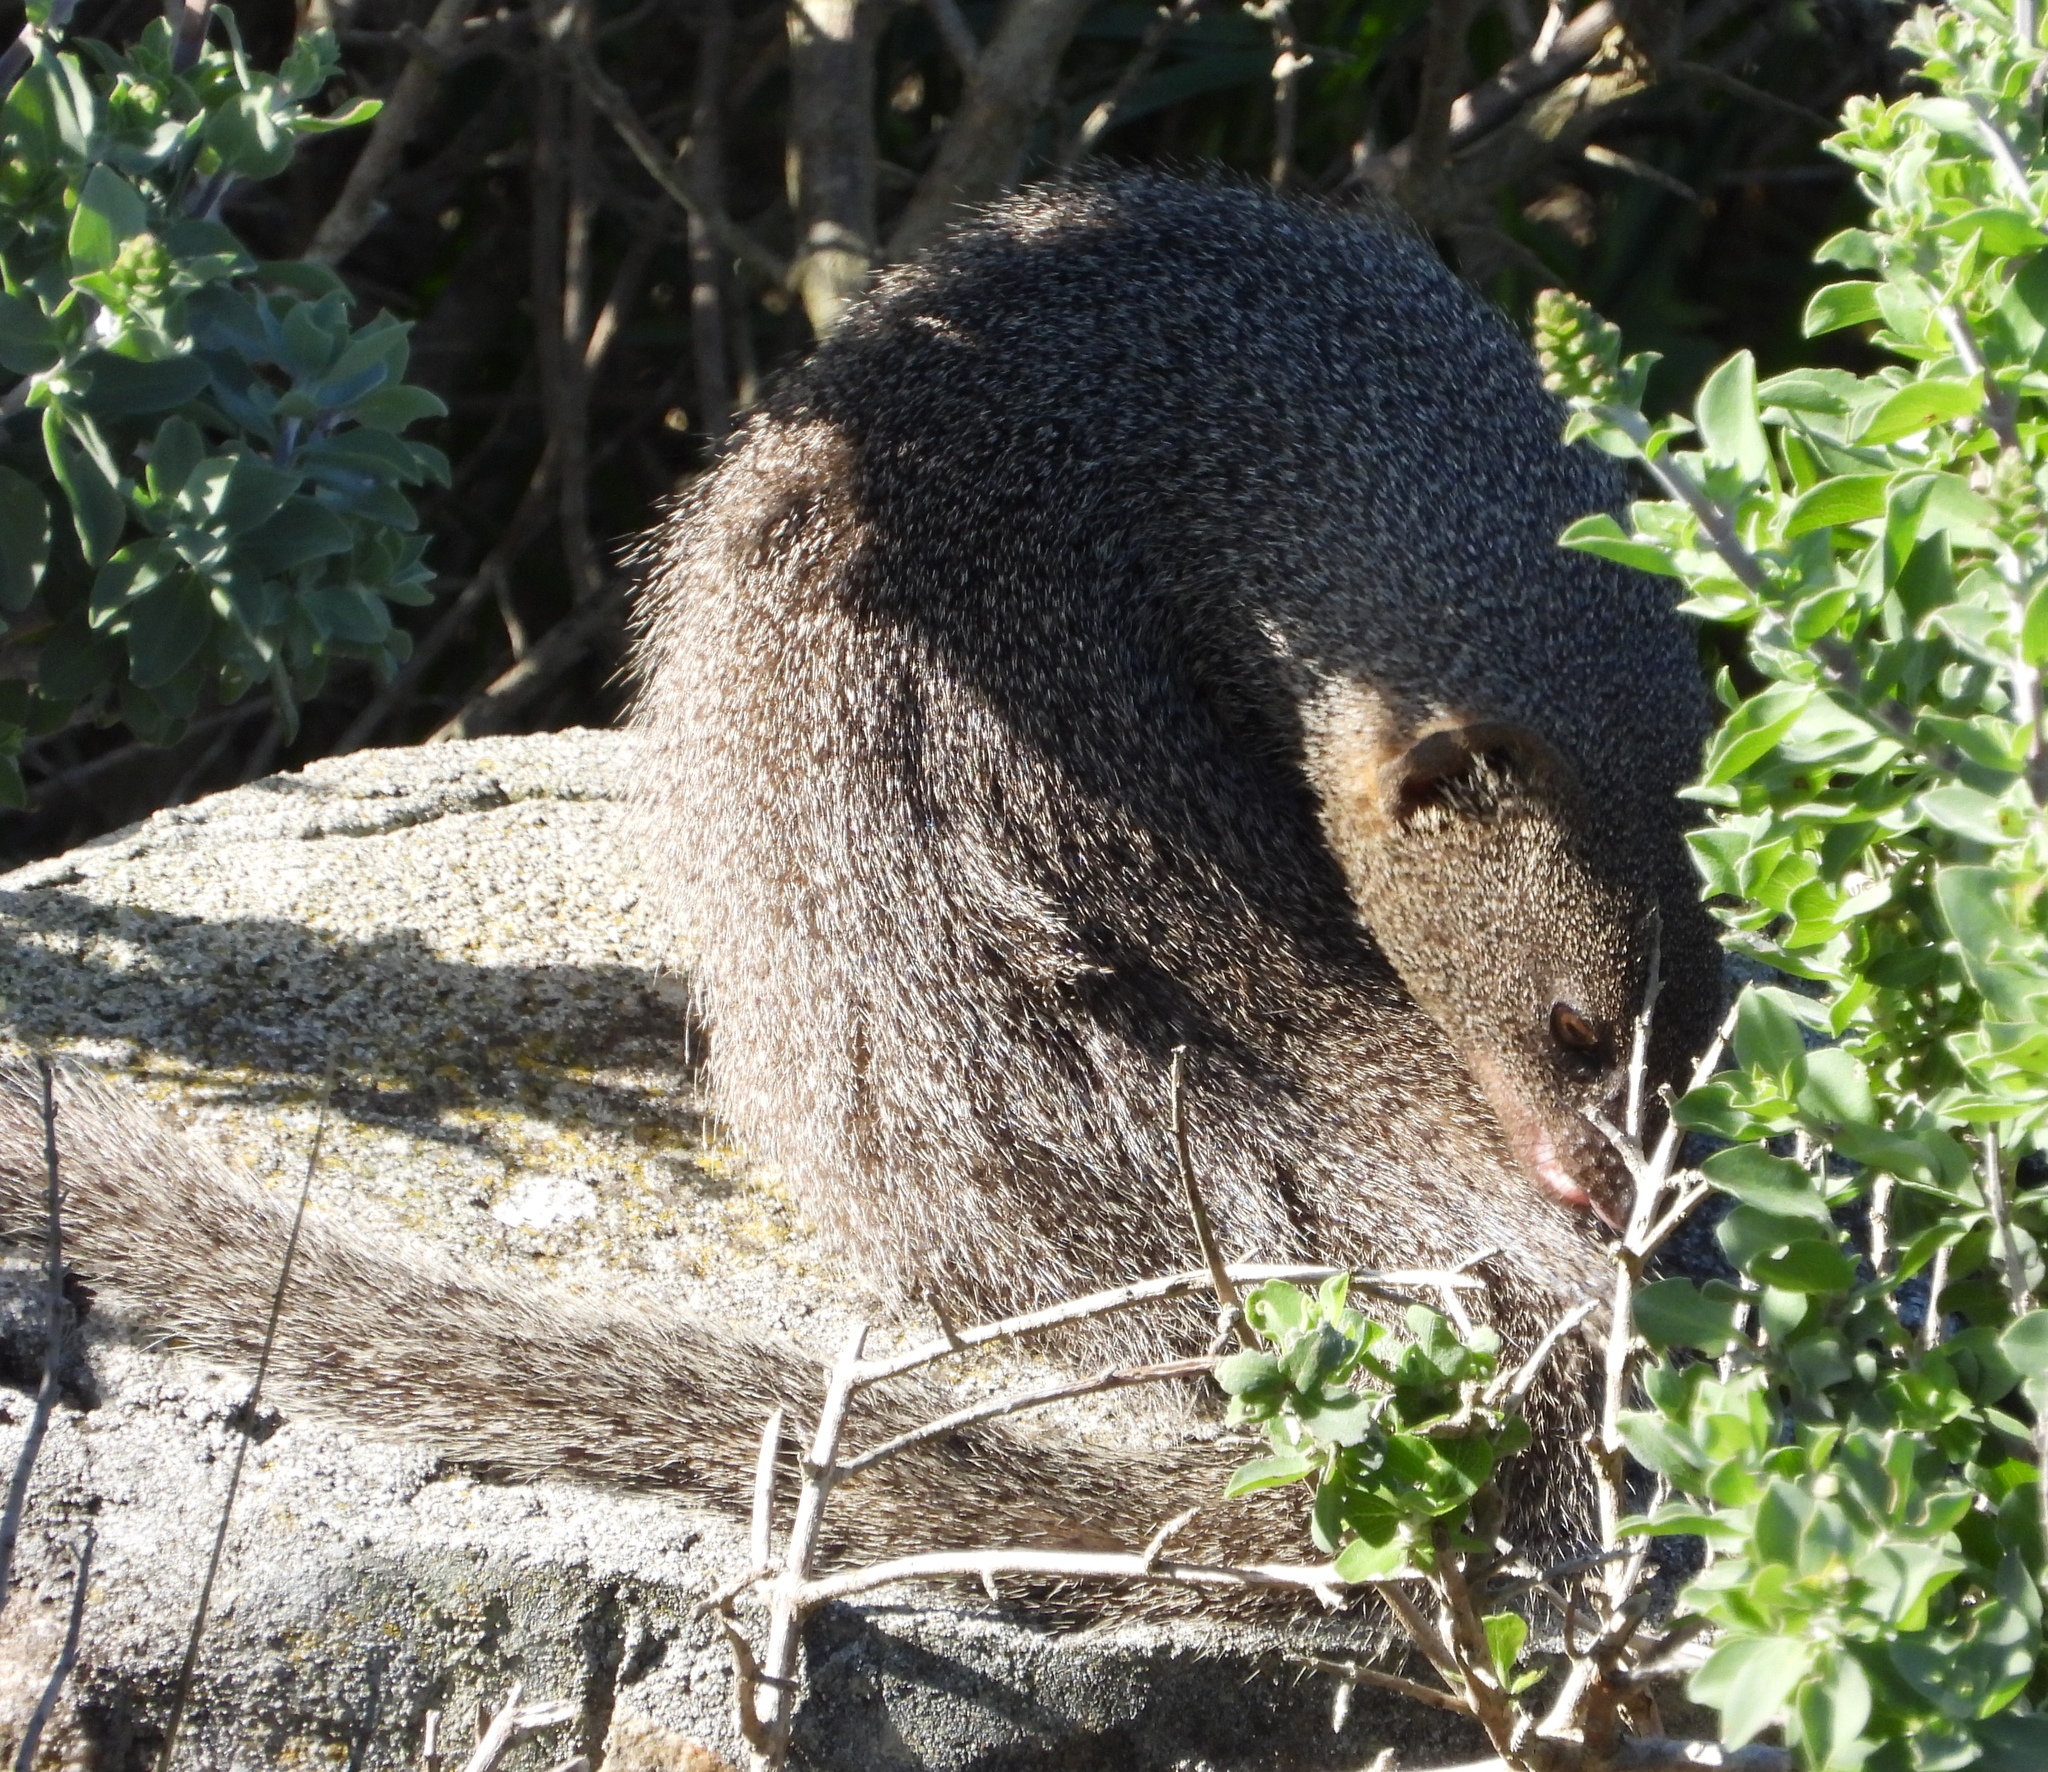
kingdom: Animalia
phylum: Chordata
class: Mammalia
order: Carnivora
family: Herpestidae
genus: Galerella
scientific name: Galerella pulverulenta
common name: Cape gray mongoose
